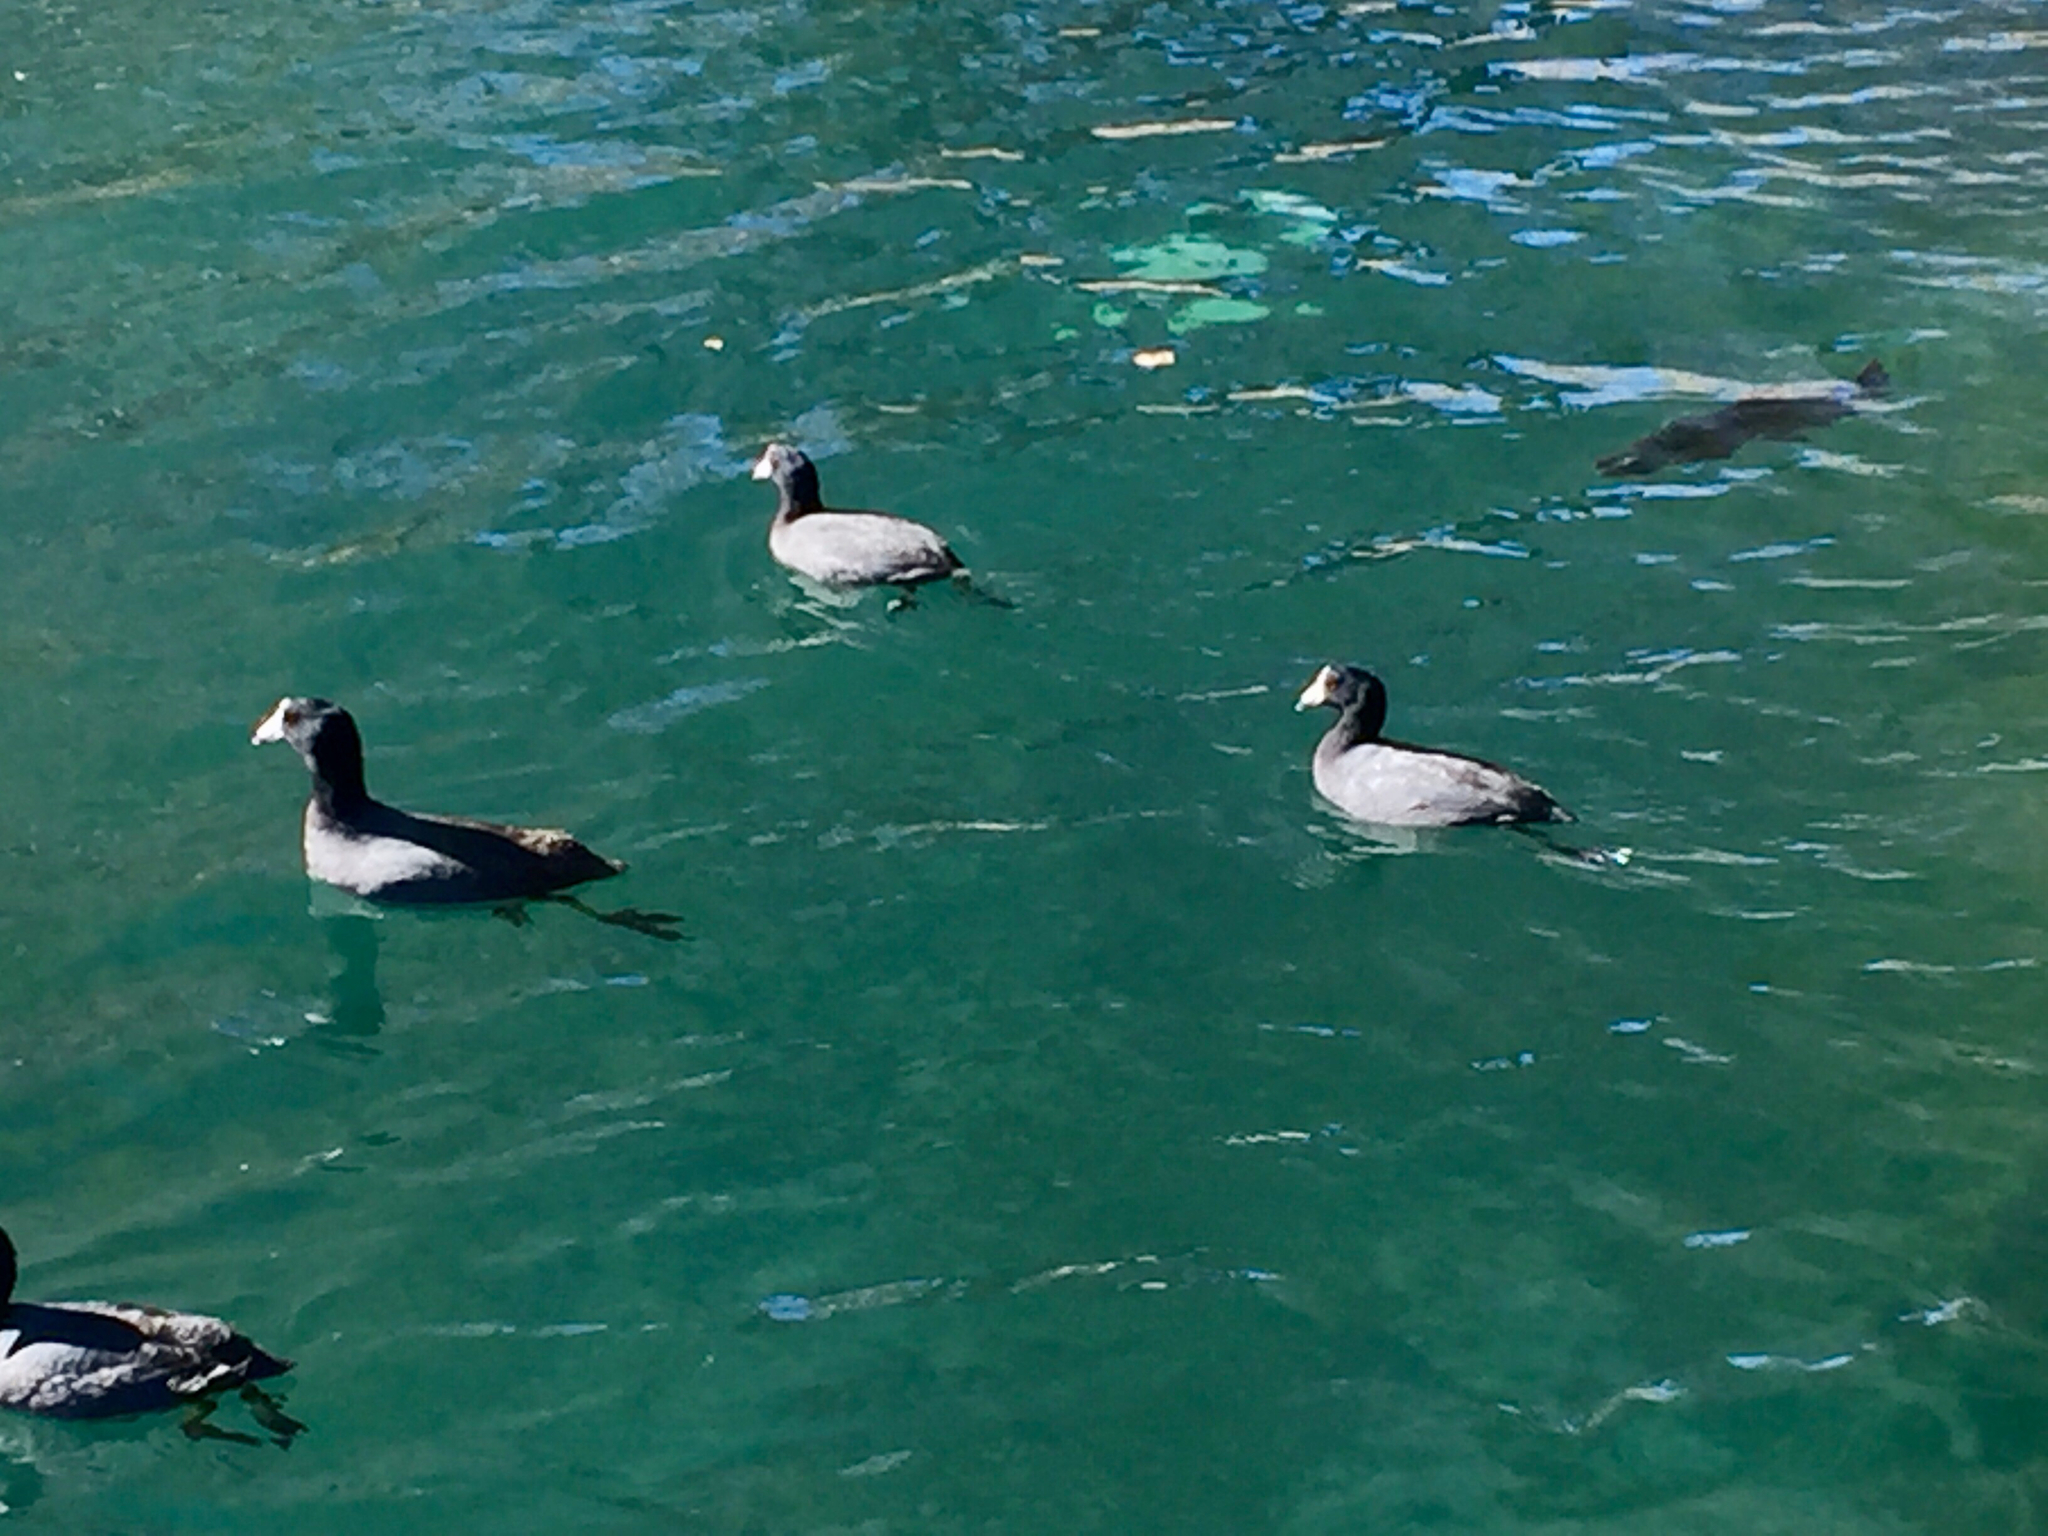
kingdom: Animalia
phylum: Chordata
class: Aves
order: Gruiformes
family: Rallidae
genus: Fulica
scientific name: Fulica americana
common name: American coot
